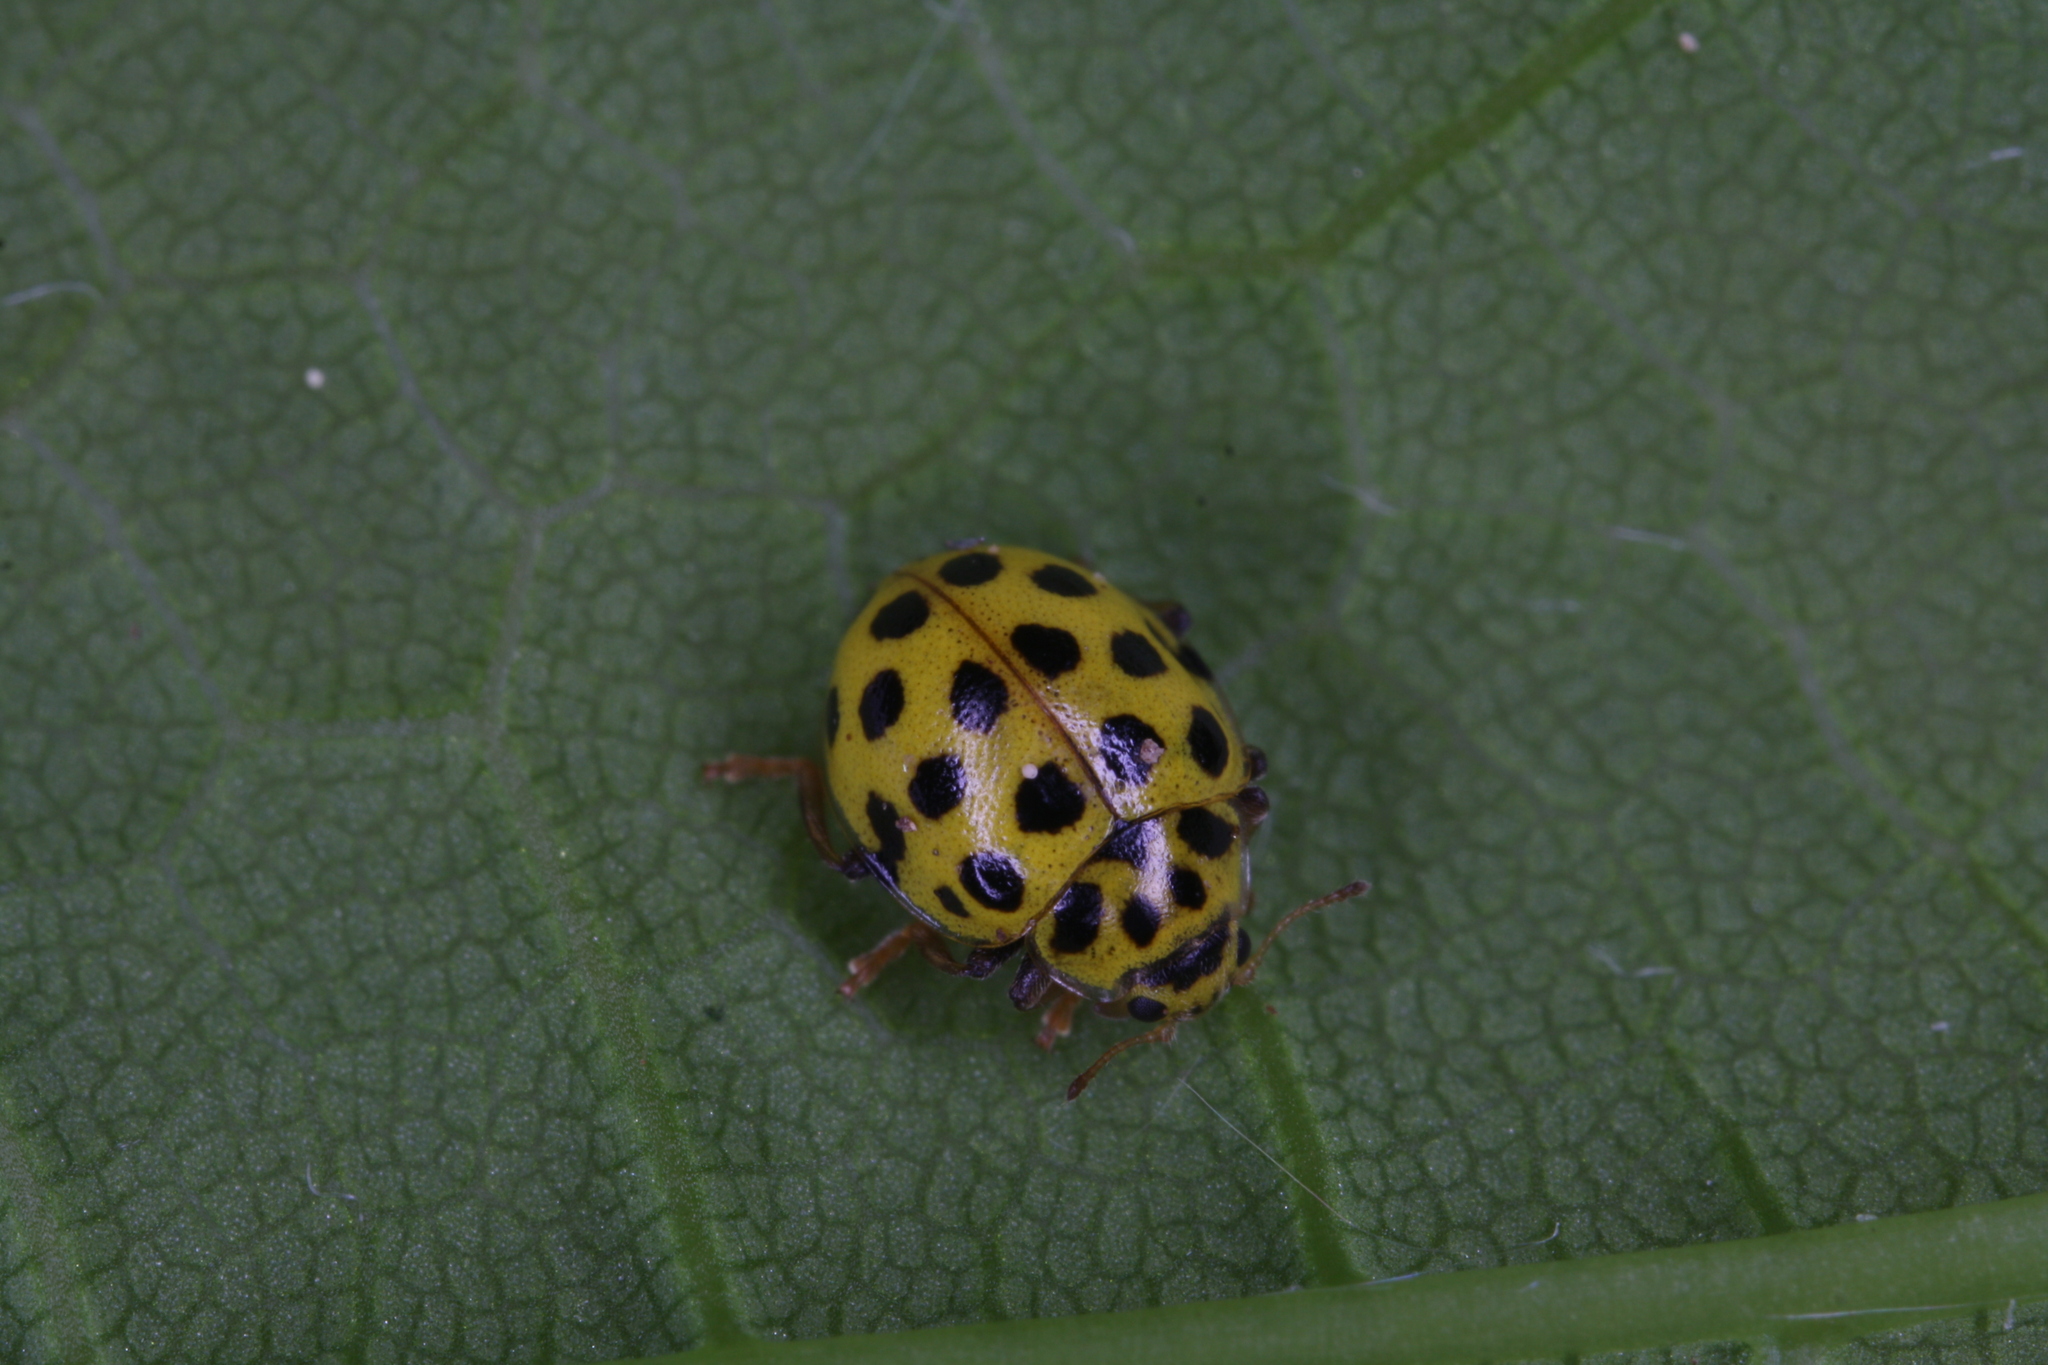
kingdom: Animalia
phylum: Arthropoda
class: Insecta
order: Coleoptera
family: Coccinellidae
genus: Psyllobora
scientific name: Psyllobora vigintiduopunctata
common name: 22-spot ladybird
